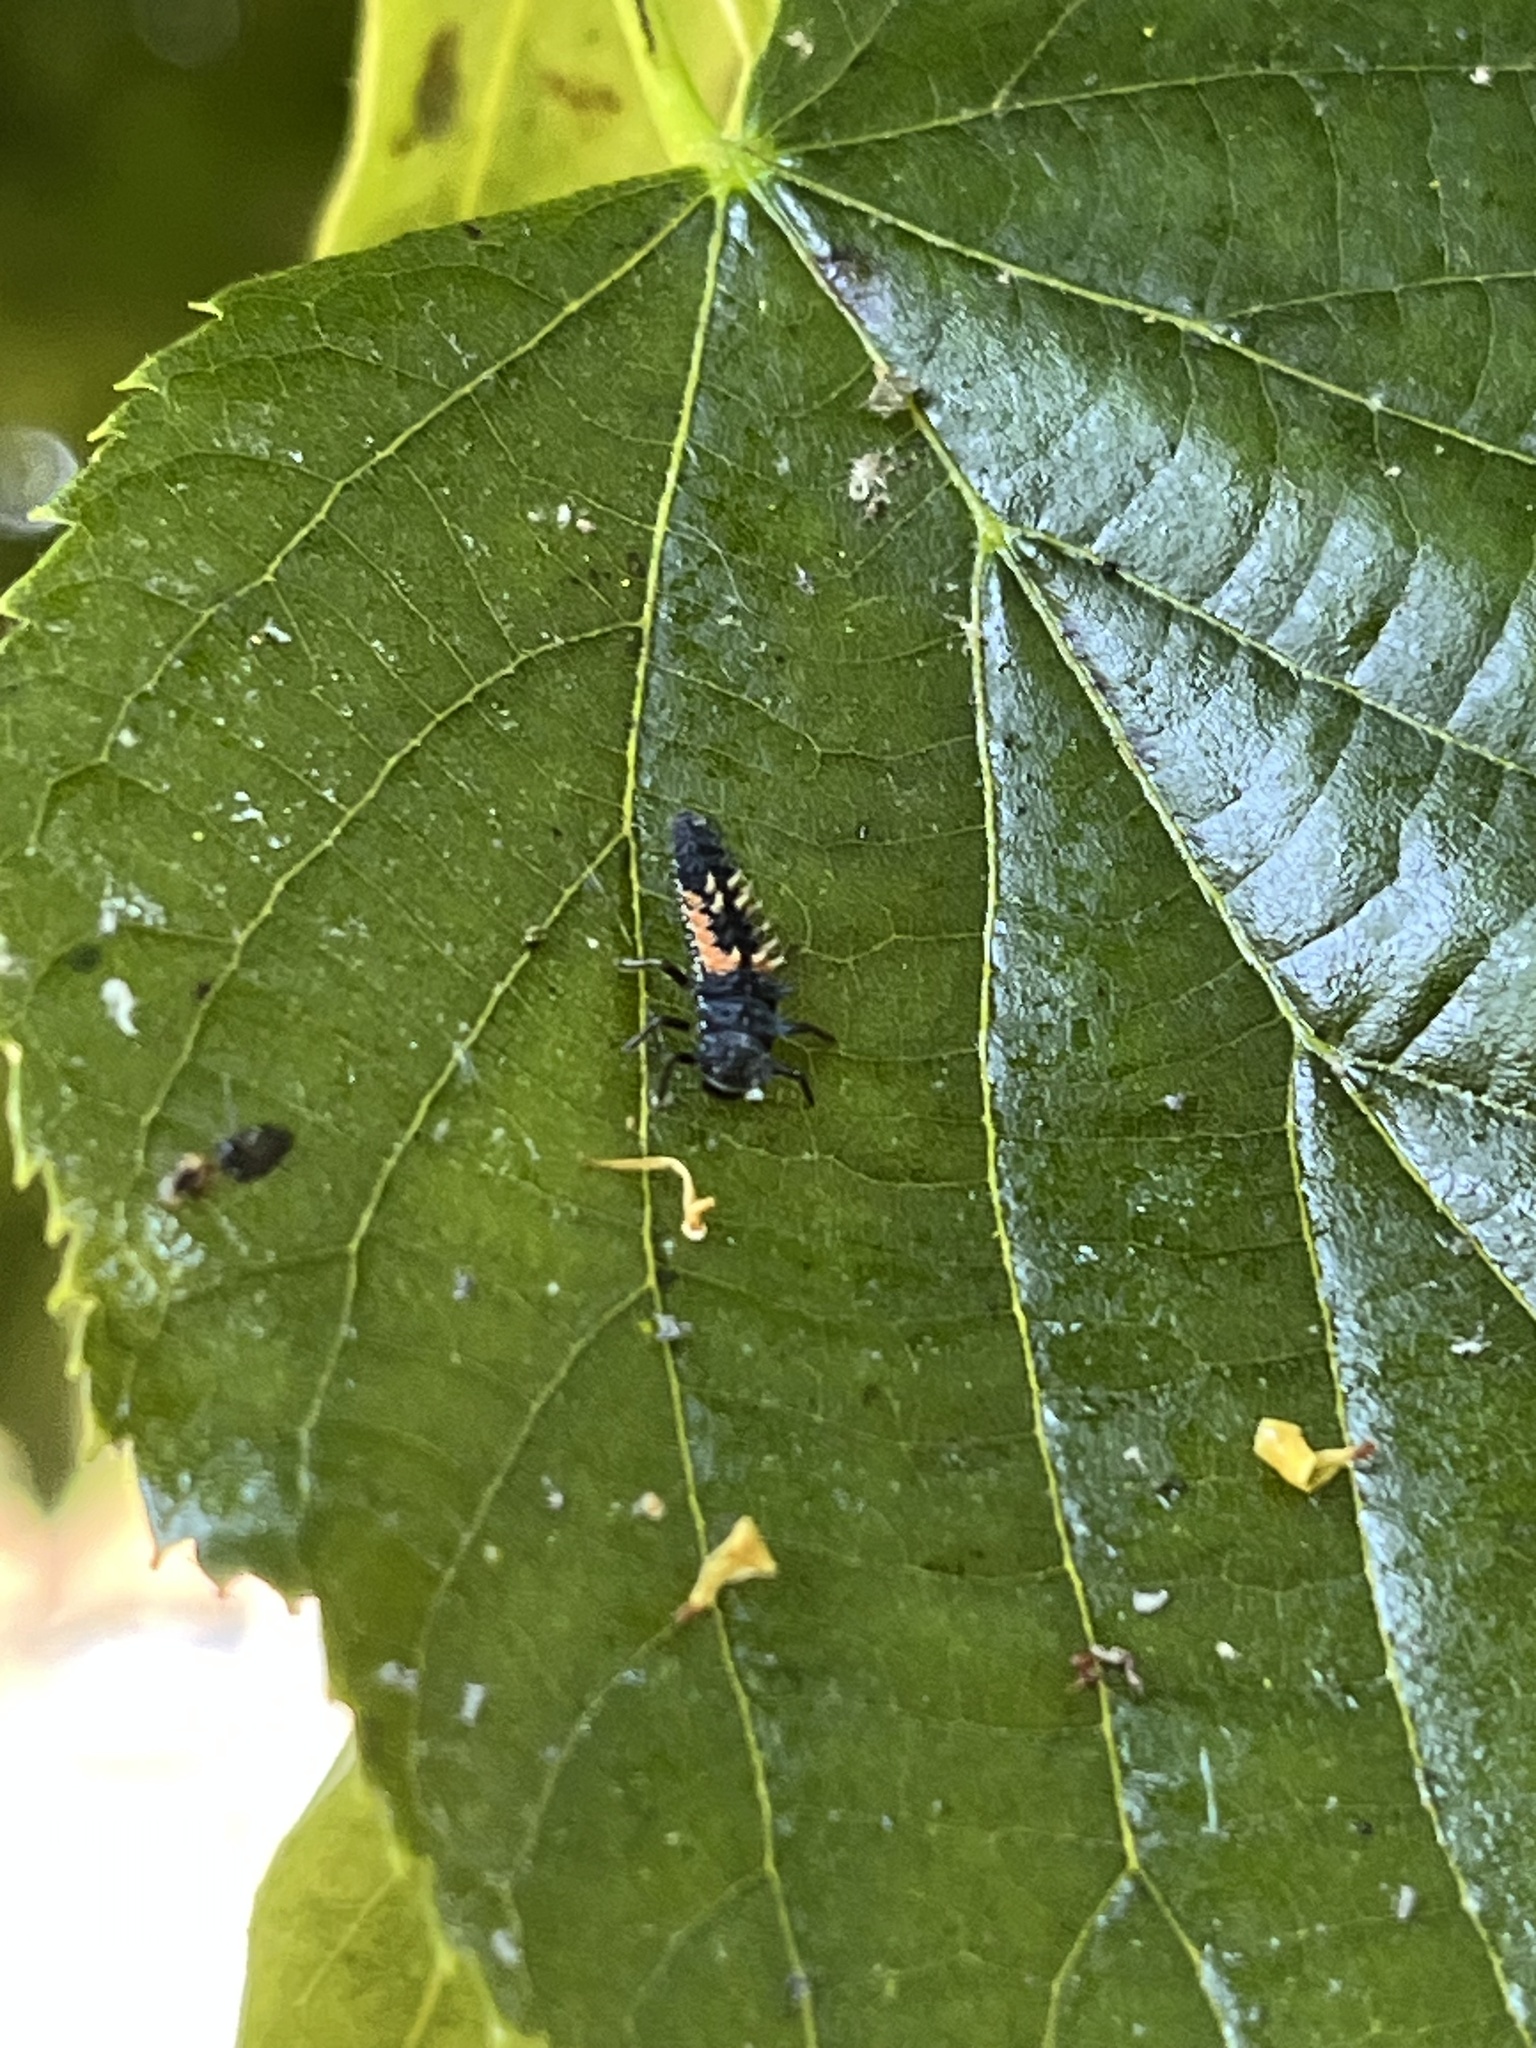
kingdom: Animalia
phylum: Arthropoda
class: Insecta
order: Coleoptera
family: Coccinellidae
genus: Harmonia
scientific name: Harmonia axyridis
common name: Harlequin ladybird
